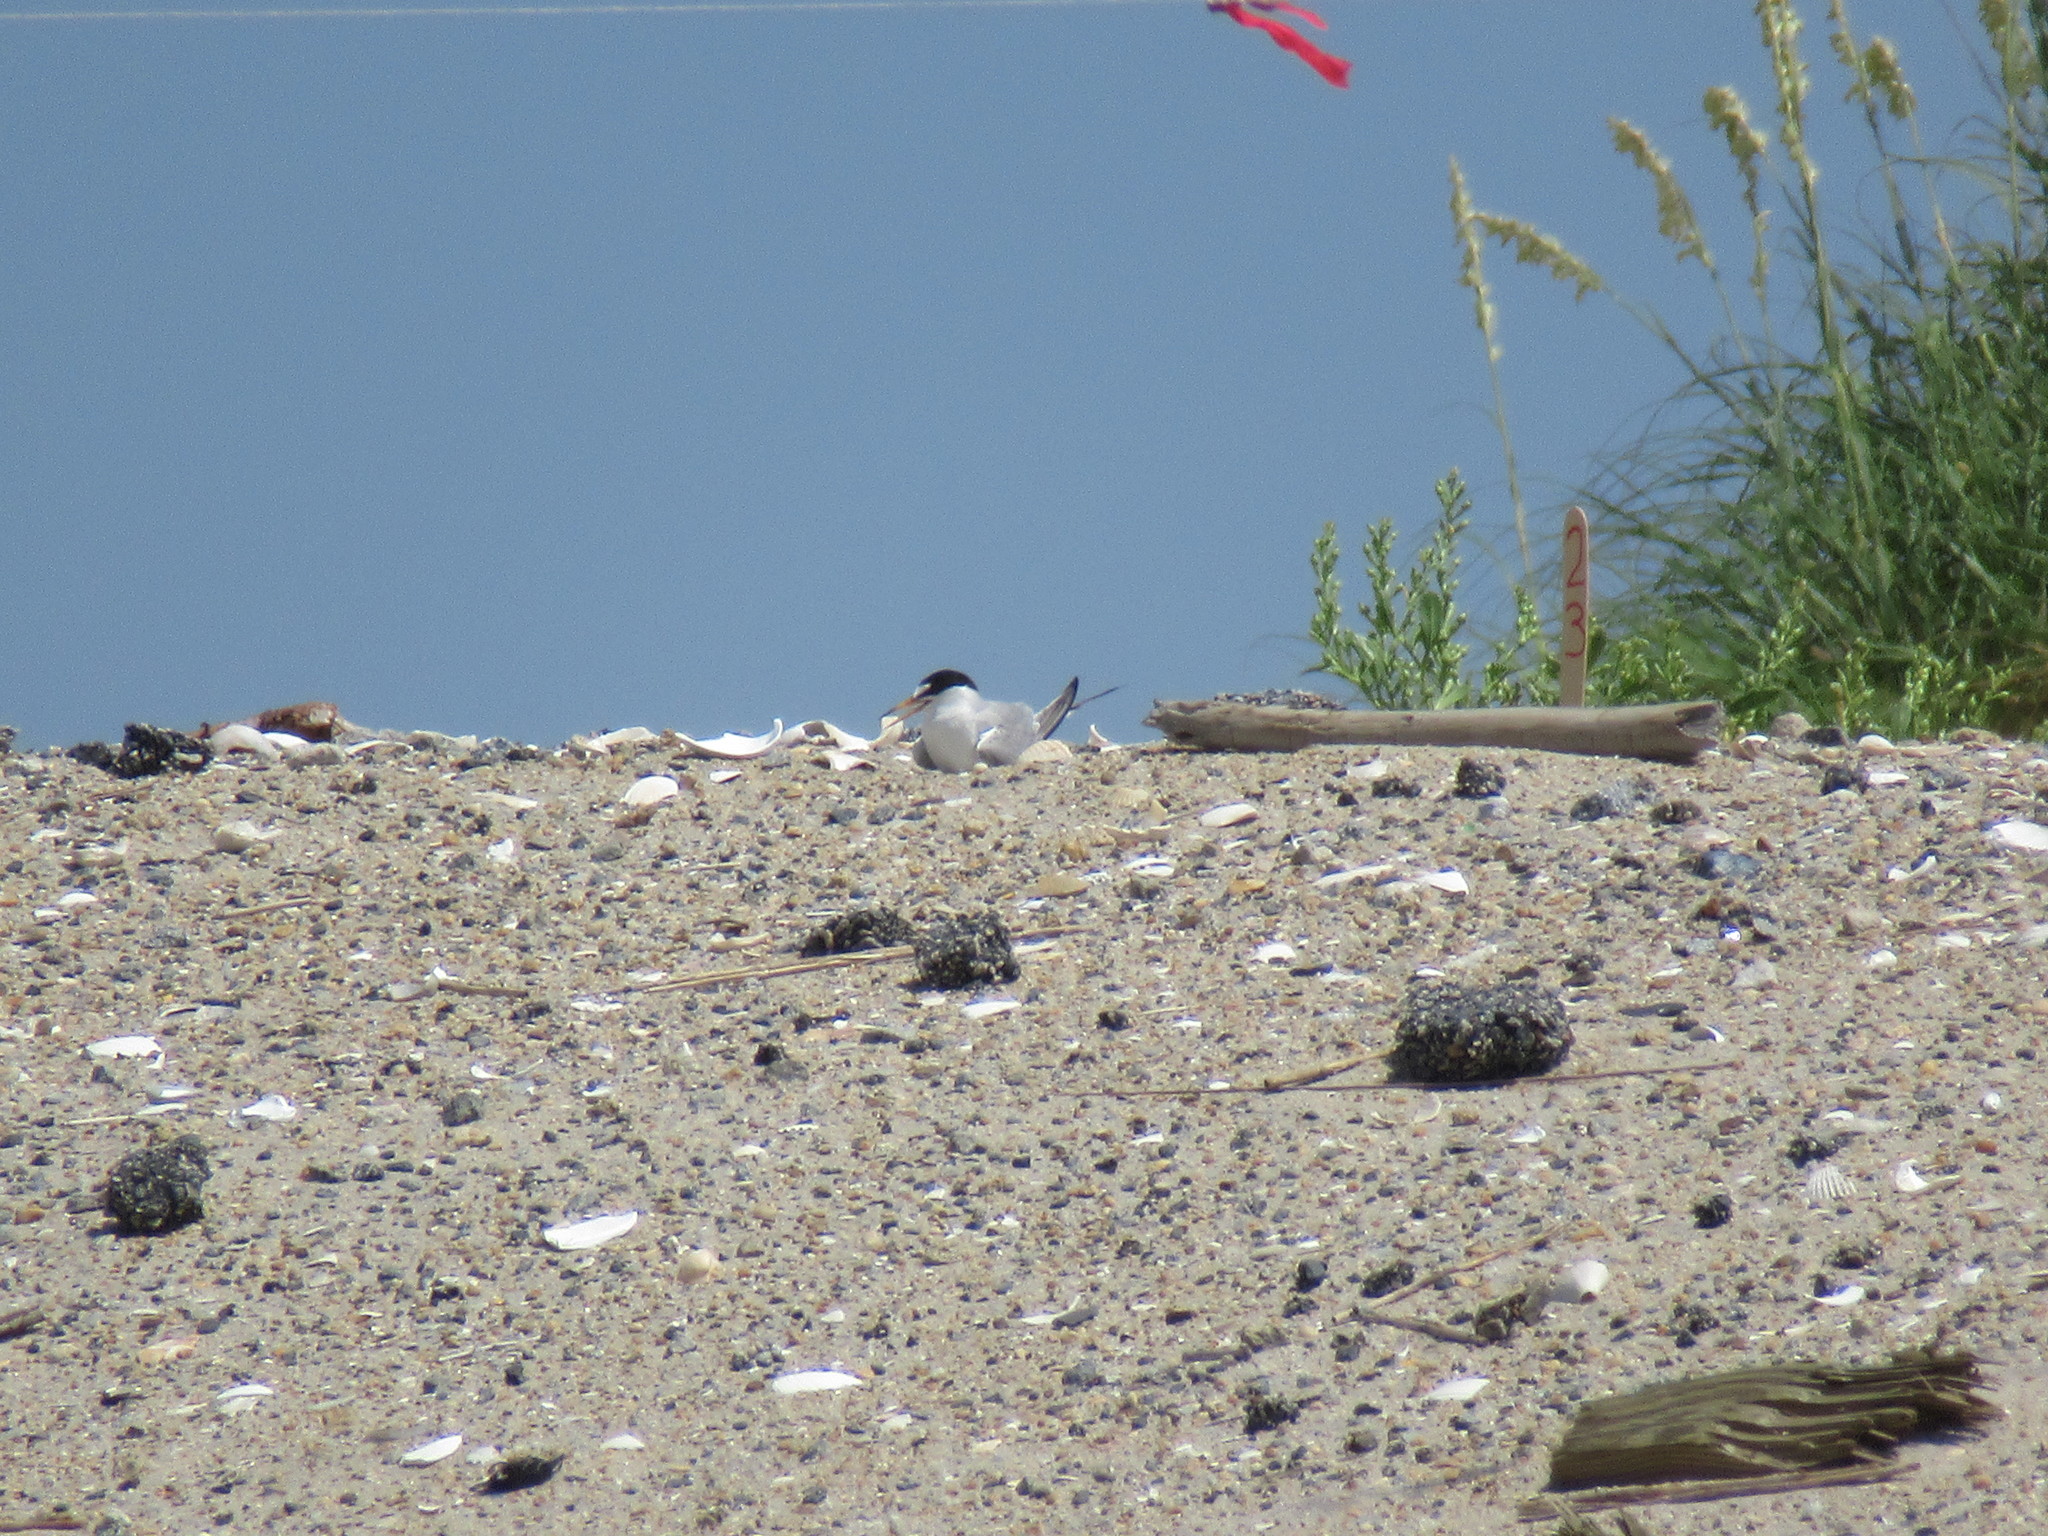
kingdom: Animalia
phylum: Chordata
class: Aves
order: Charadriiformes
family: Laridae
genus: Sternula
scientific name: Sternula antillarum
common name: Least tern
